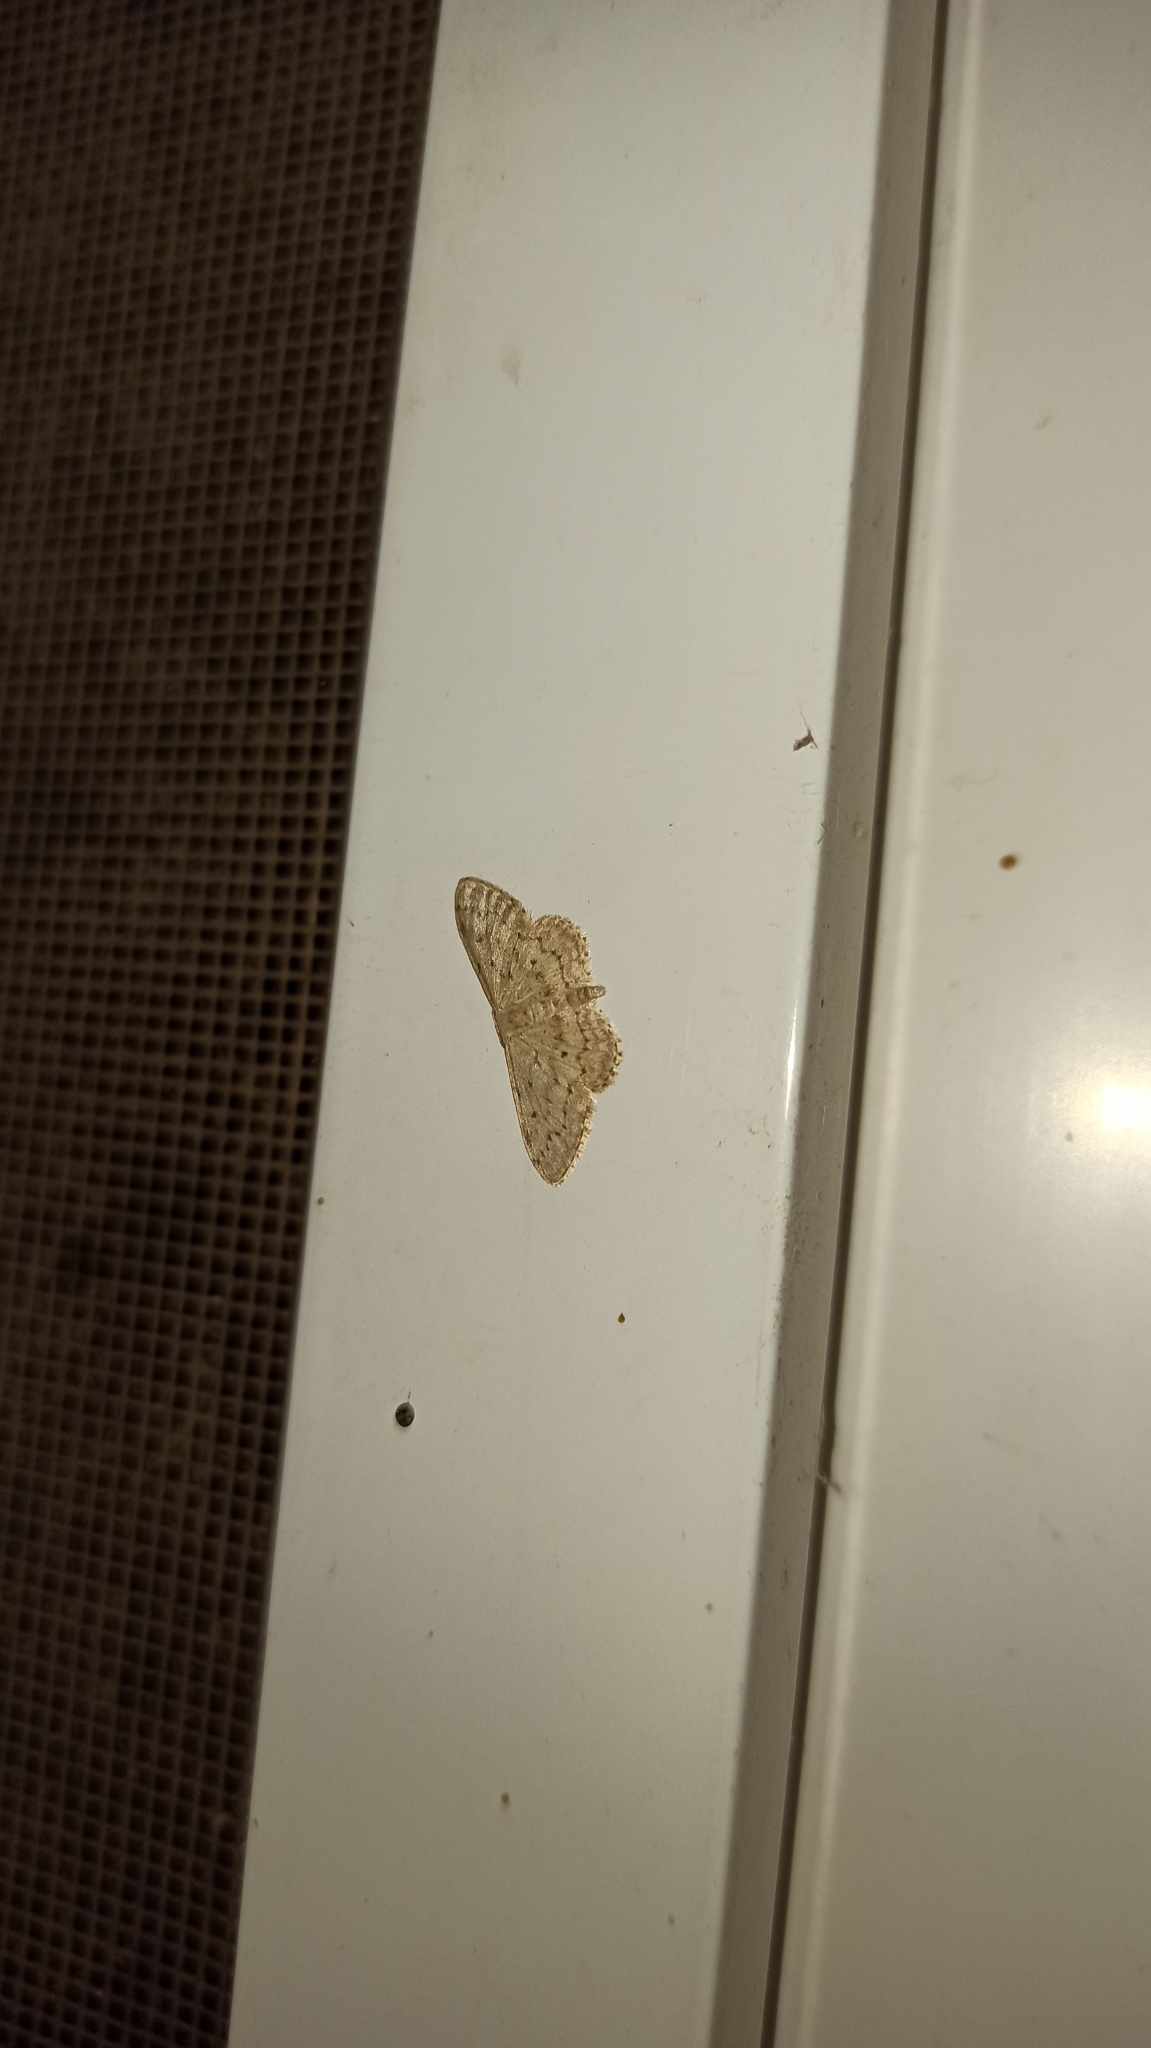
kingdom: Animalia
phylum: Arthropoda
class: Insecta
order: Lepidoptera
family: Geometridae
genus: Idaea
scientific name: Idaea seriata
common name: Small dusty wave
